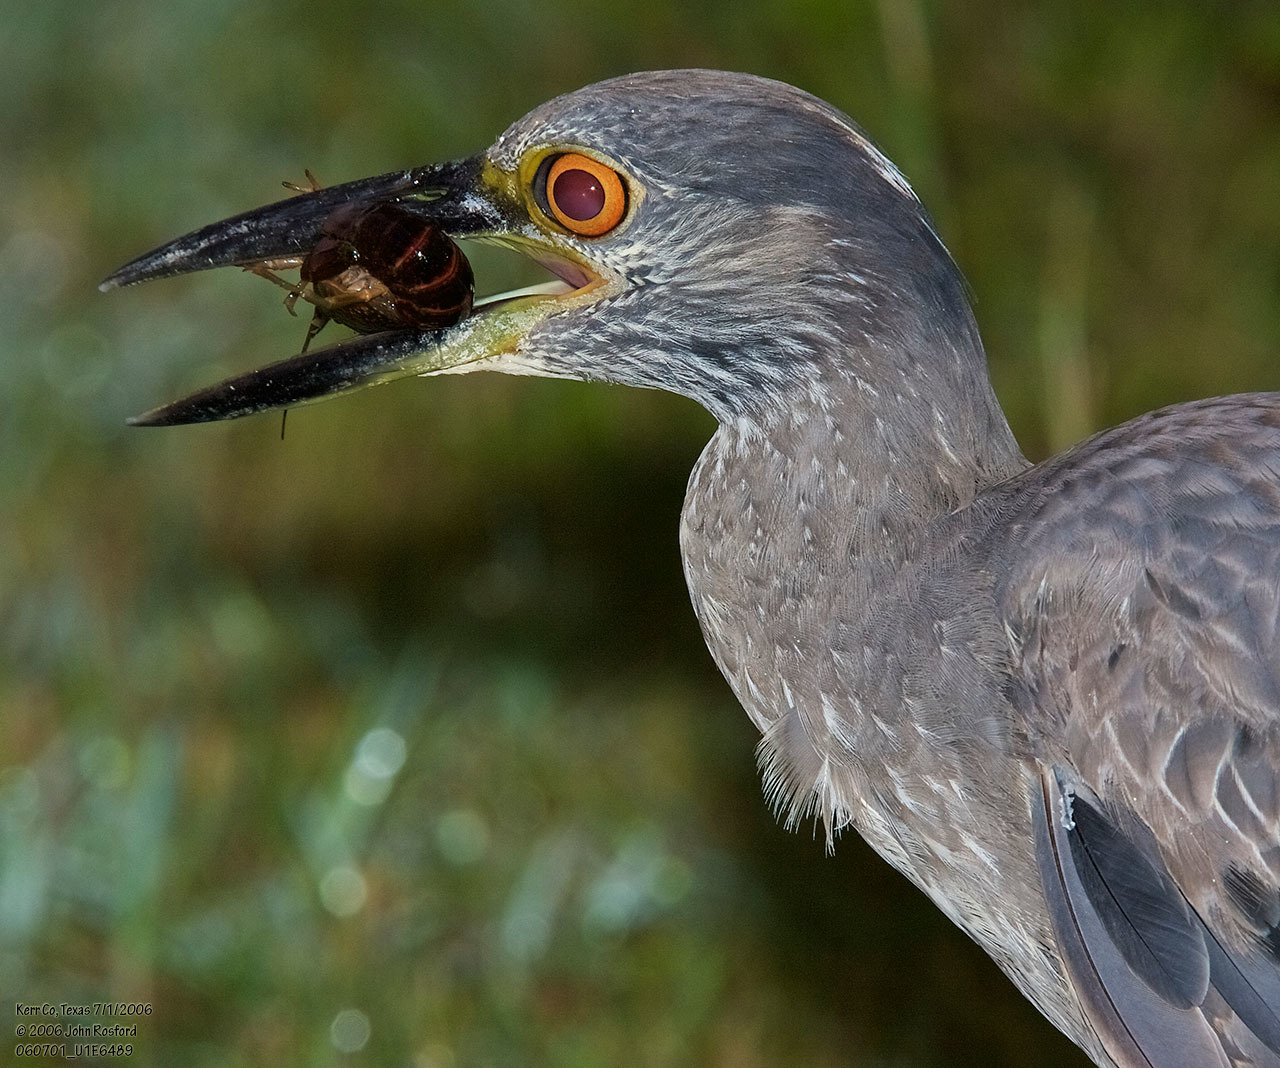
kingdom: Animalia
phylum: Chordata
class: Aves
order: Pelecaniformes
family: Ardeidae
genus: Nyctanassa
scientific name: Nyctanassa violacea
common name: Yellow-crowned night heron
